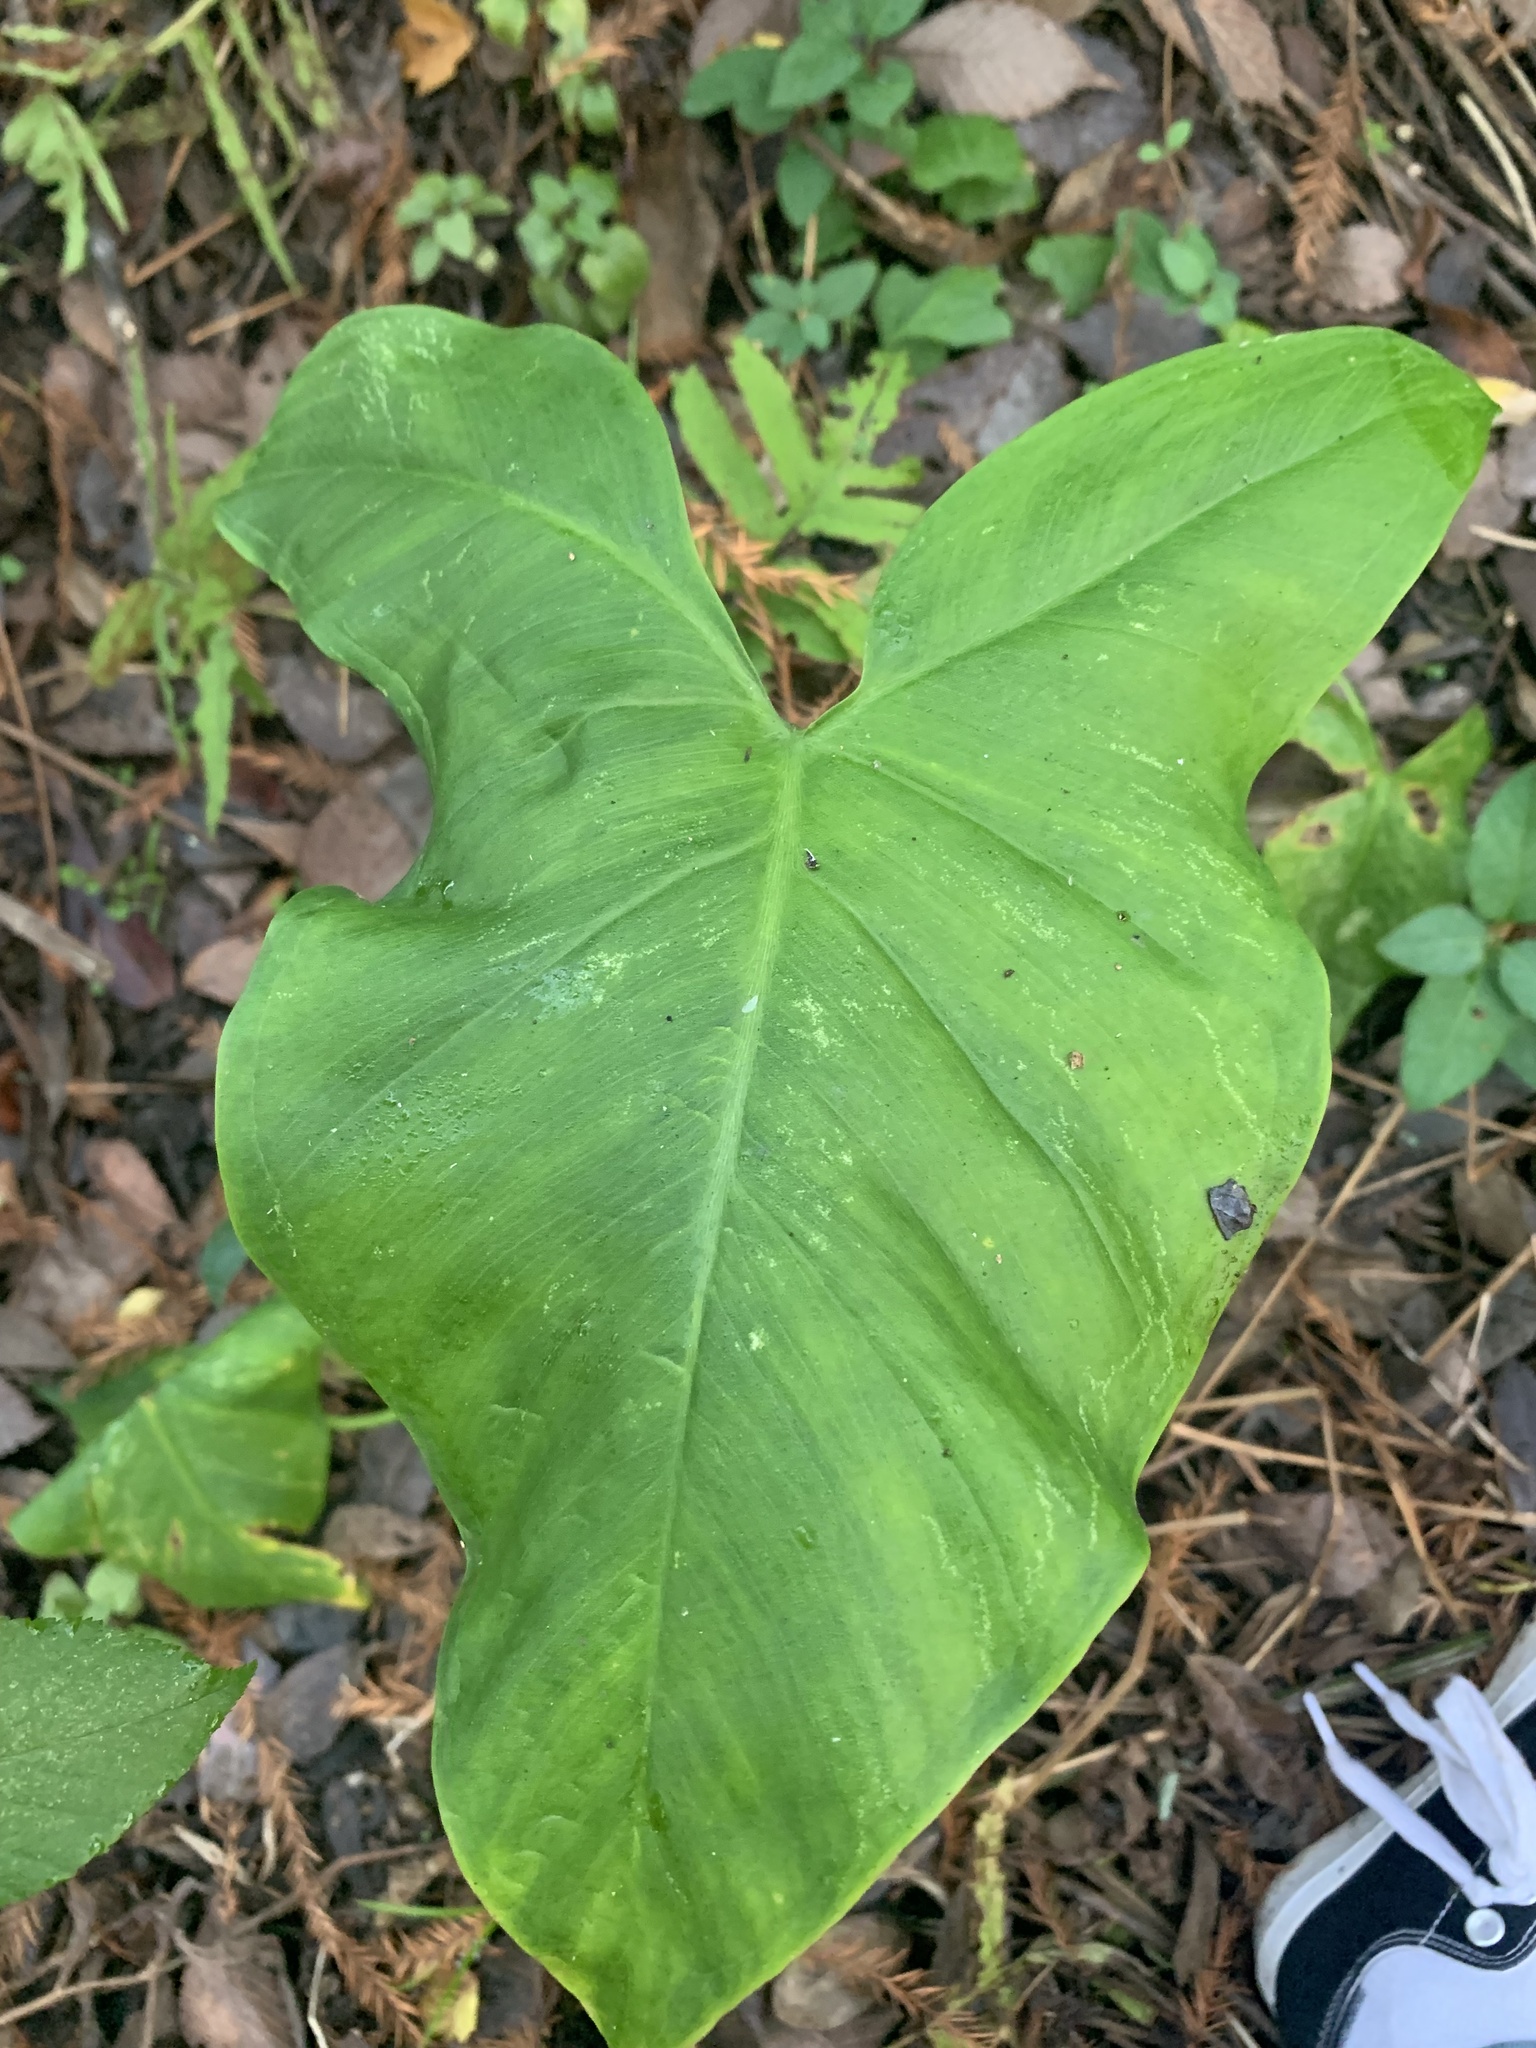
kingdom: Plantae
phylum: Tracheophyta
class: Liliopsida
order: Alismatales
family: Araceae
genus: Peltandra
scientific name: Peltandra virginica
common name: Arrow arum
